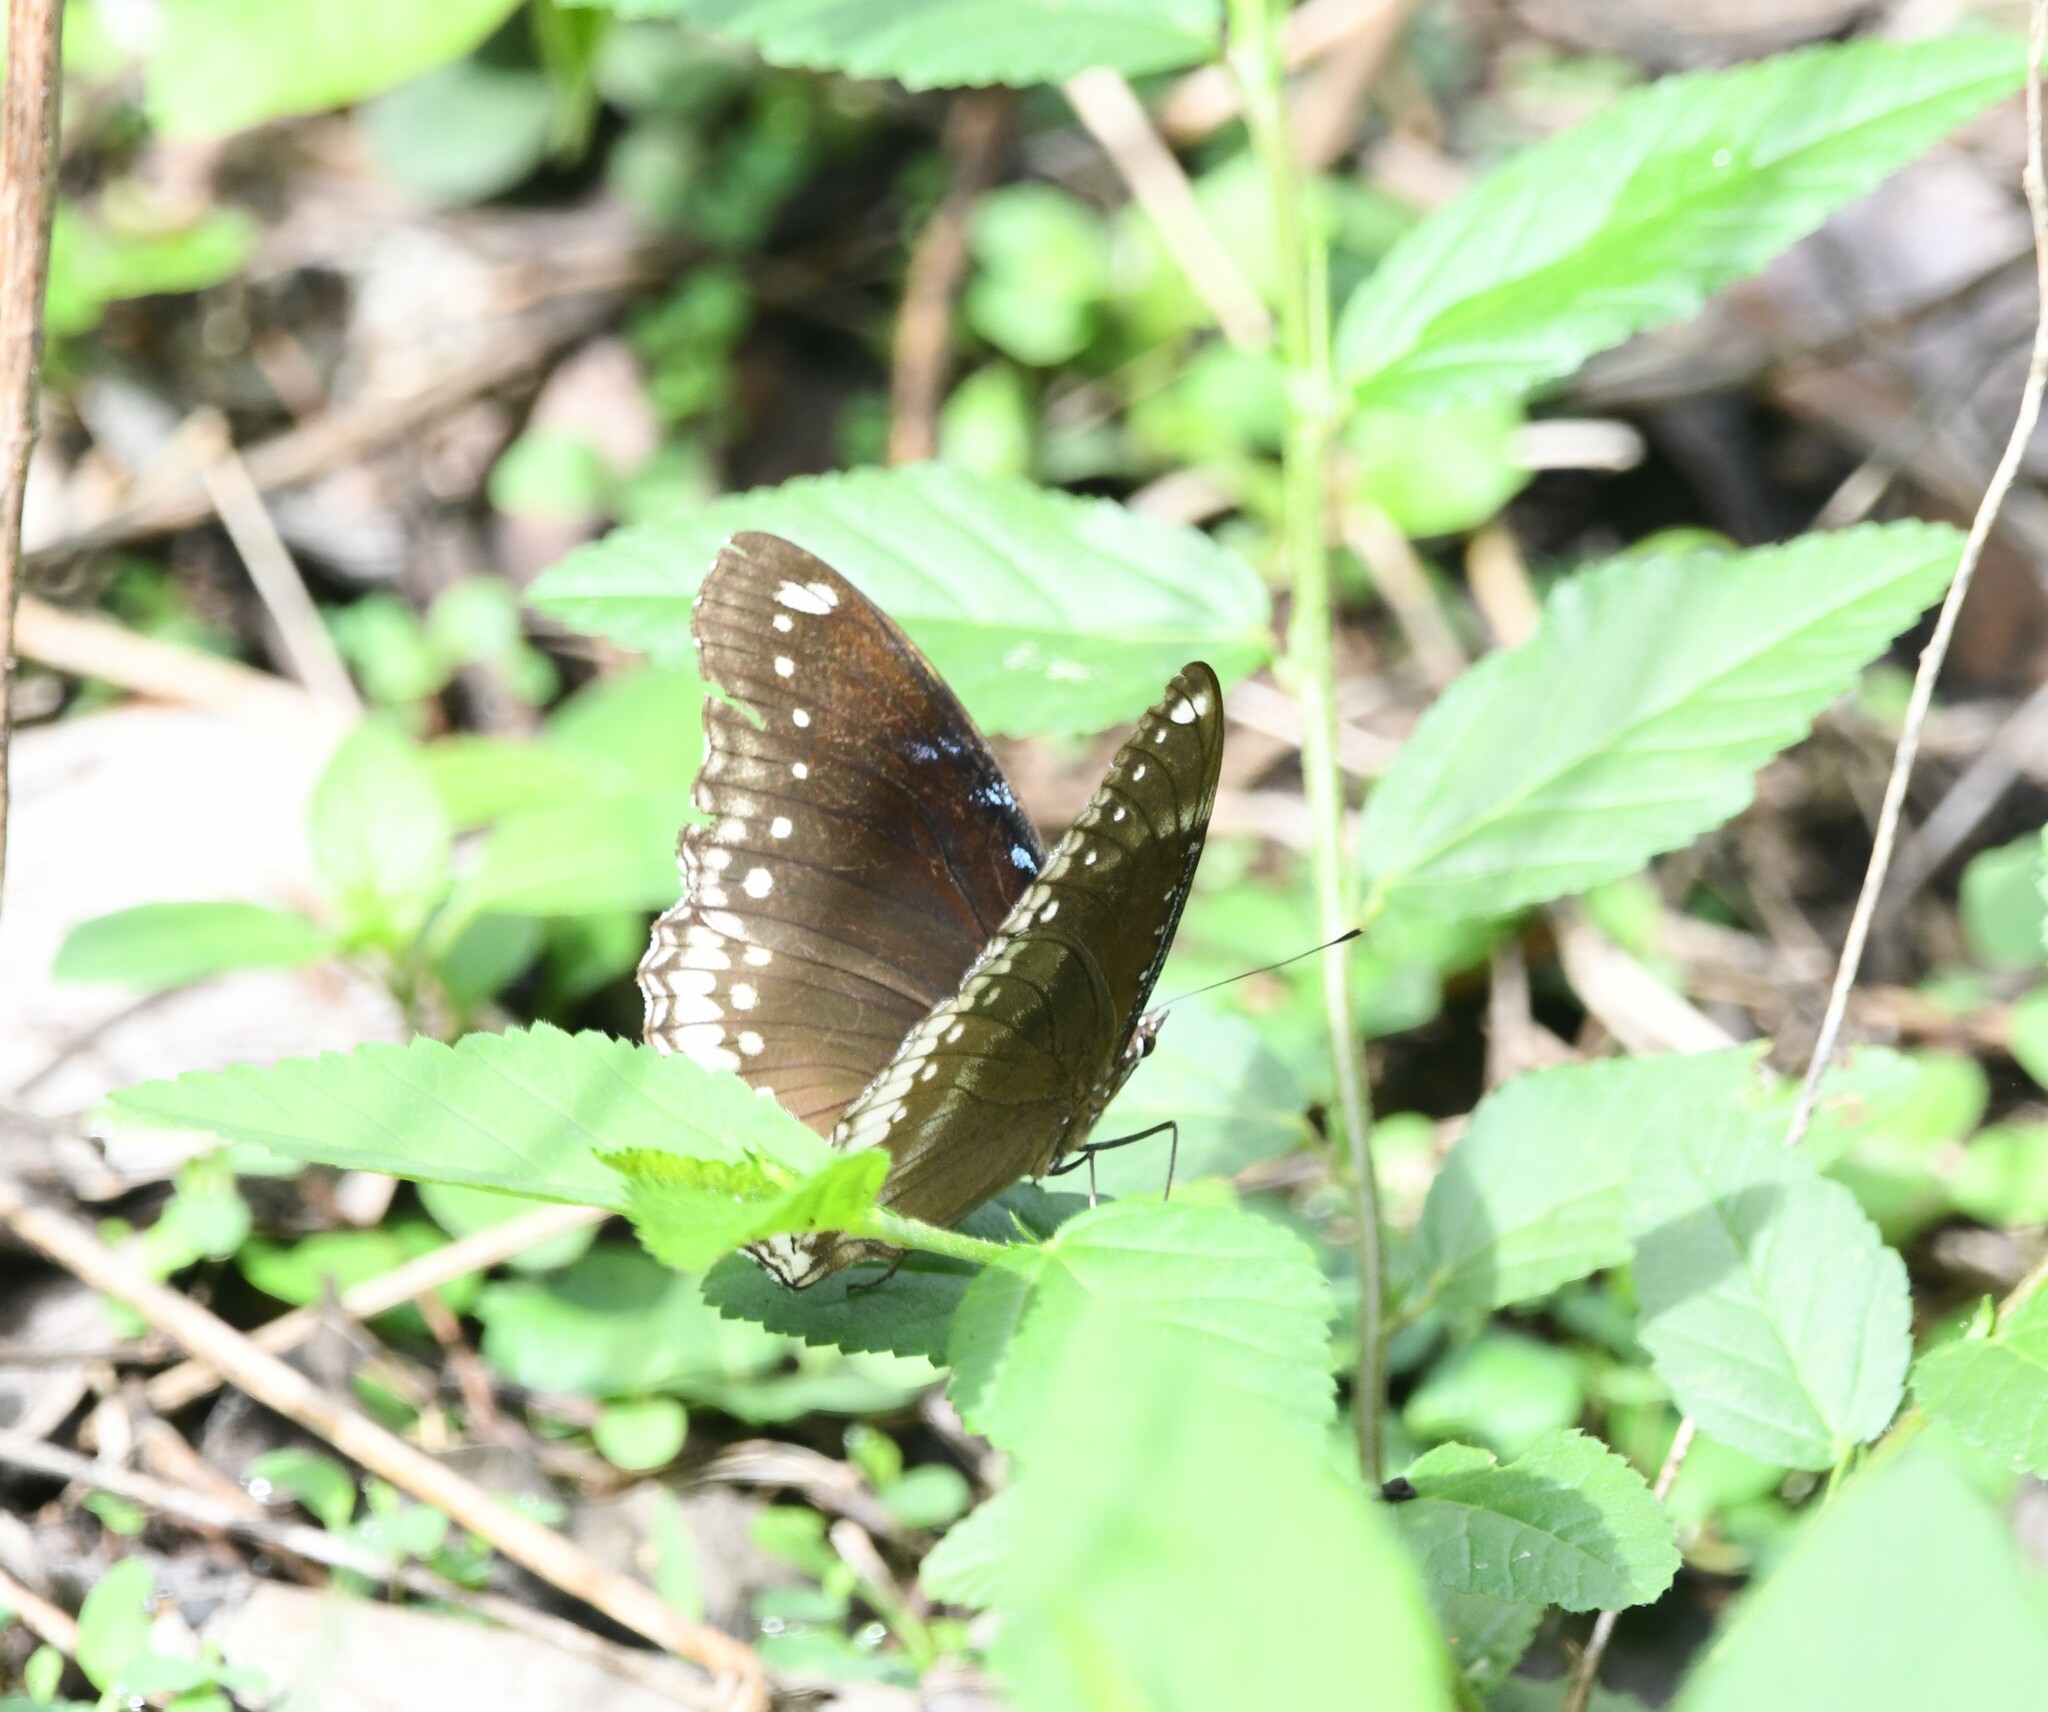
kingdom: Animalia
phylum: Arthropoda
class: Insecta
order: Lepidoptera
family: Nymphalidae
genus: Hypolimnas
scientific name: Hypolimnas bolina
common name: Great eggfly
